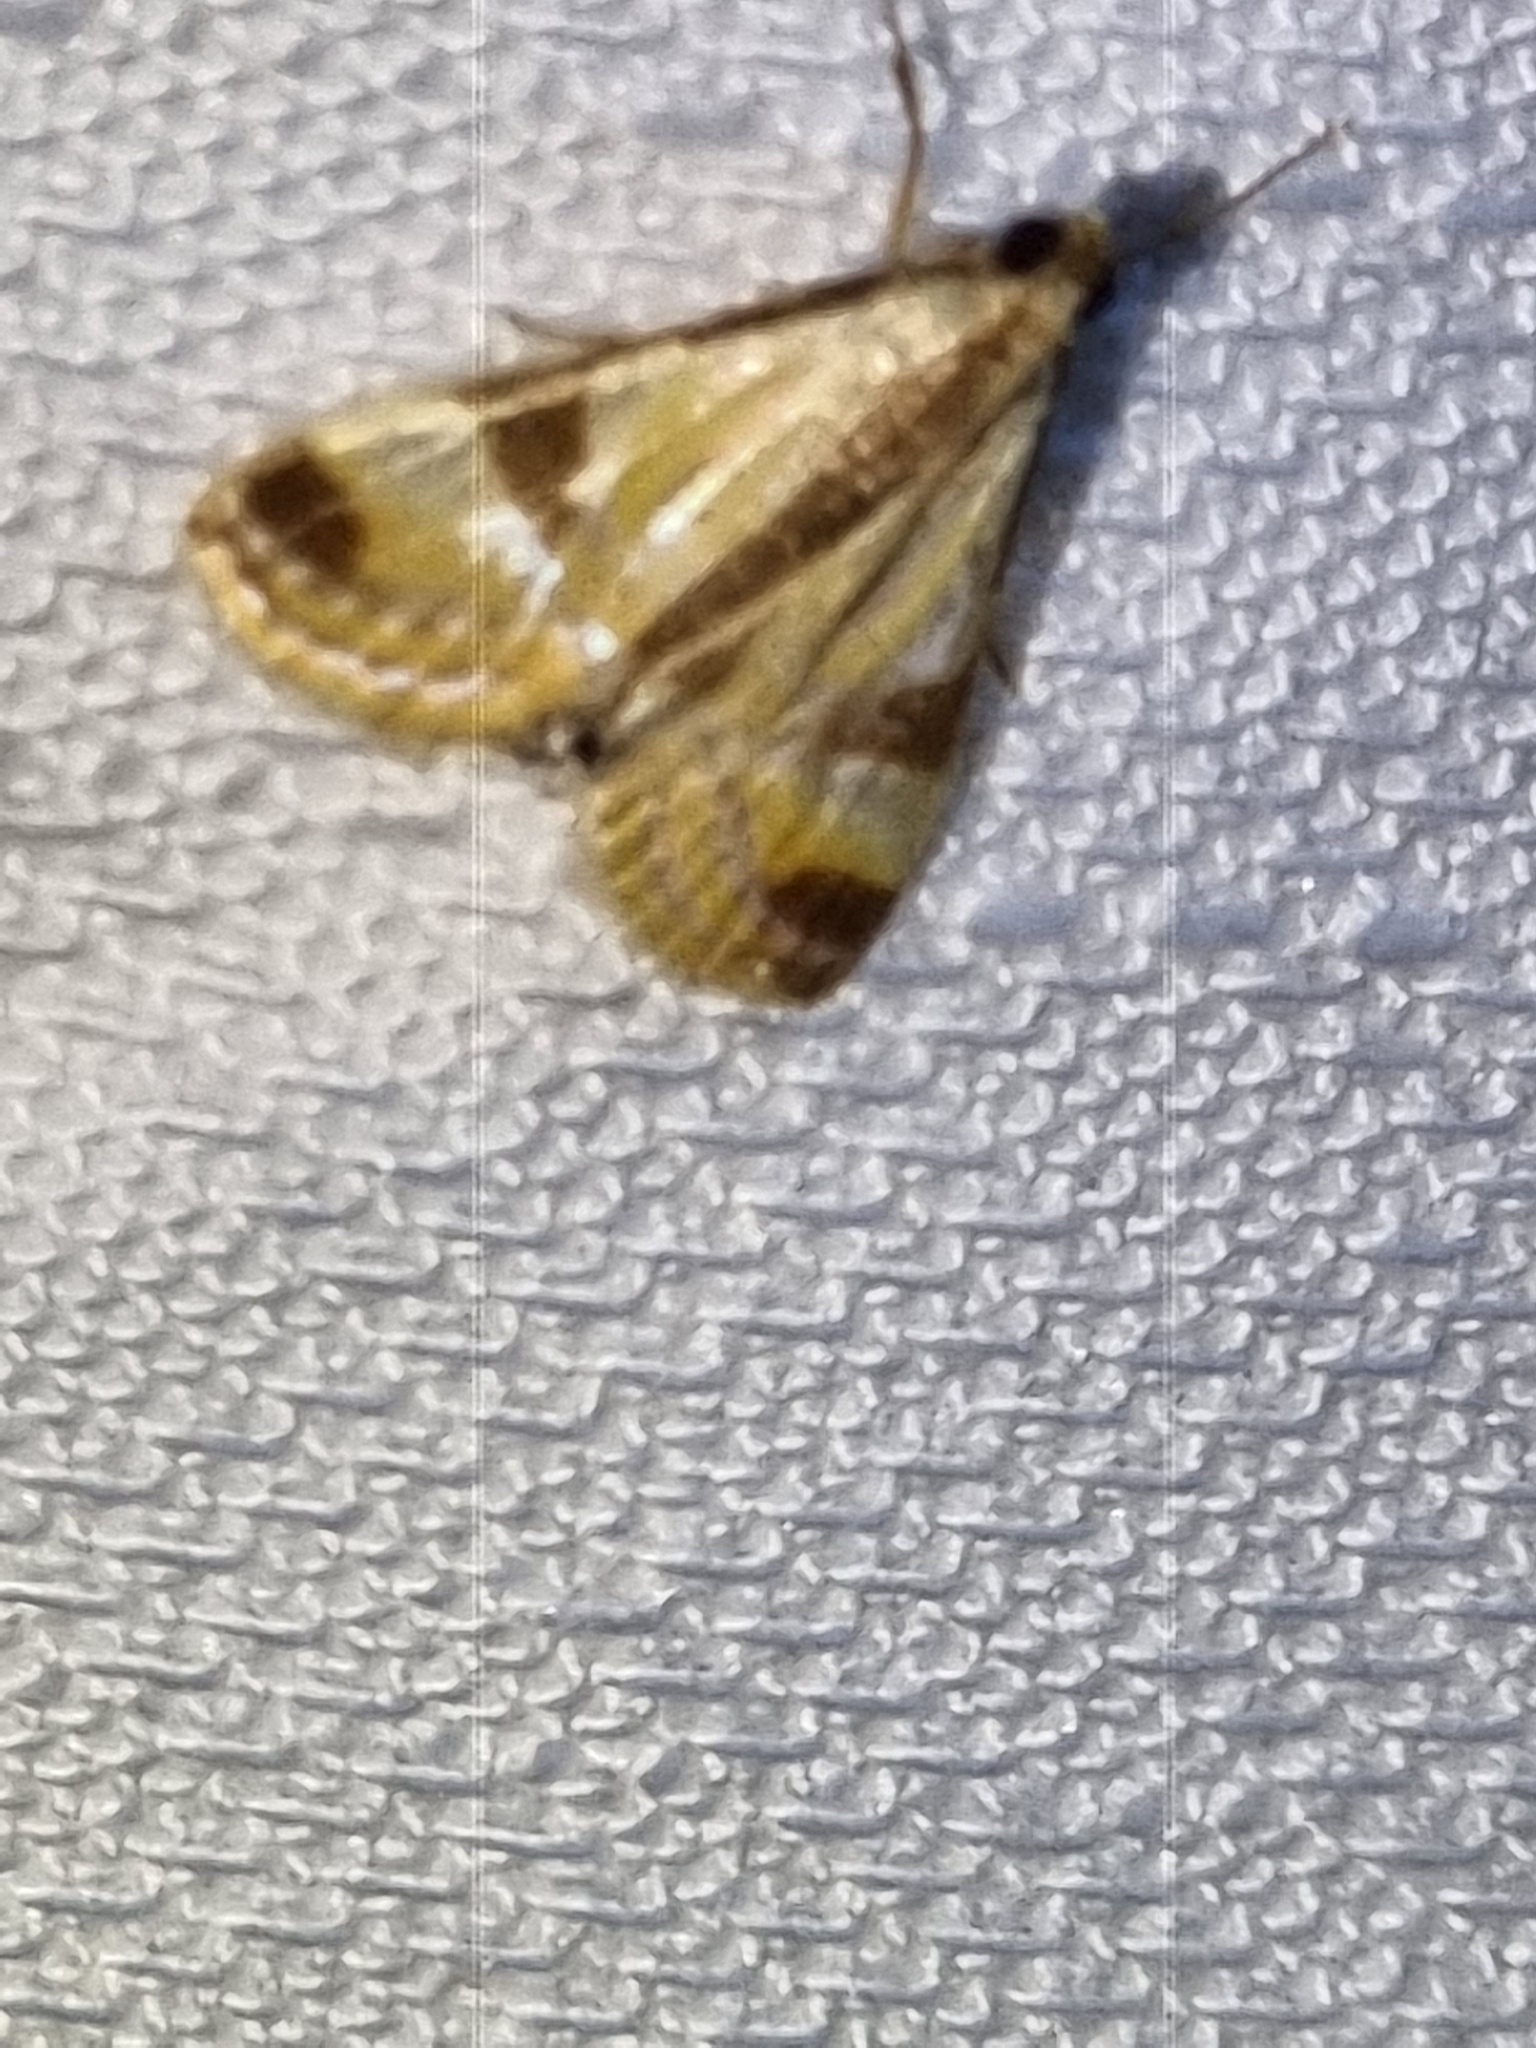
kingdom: Animalia
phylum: Arthropoda
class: Insecta
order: Lepidoptera
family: Crambidae
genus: Talanga
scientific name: Talanga tolumnialis
